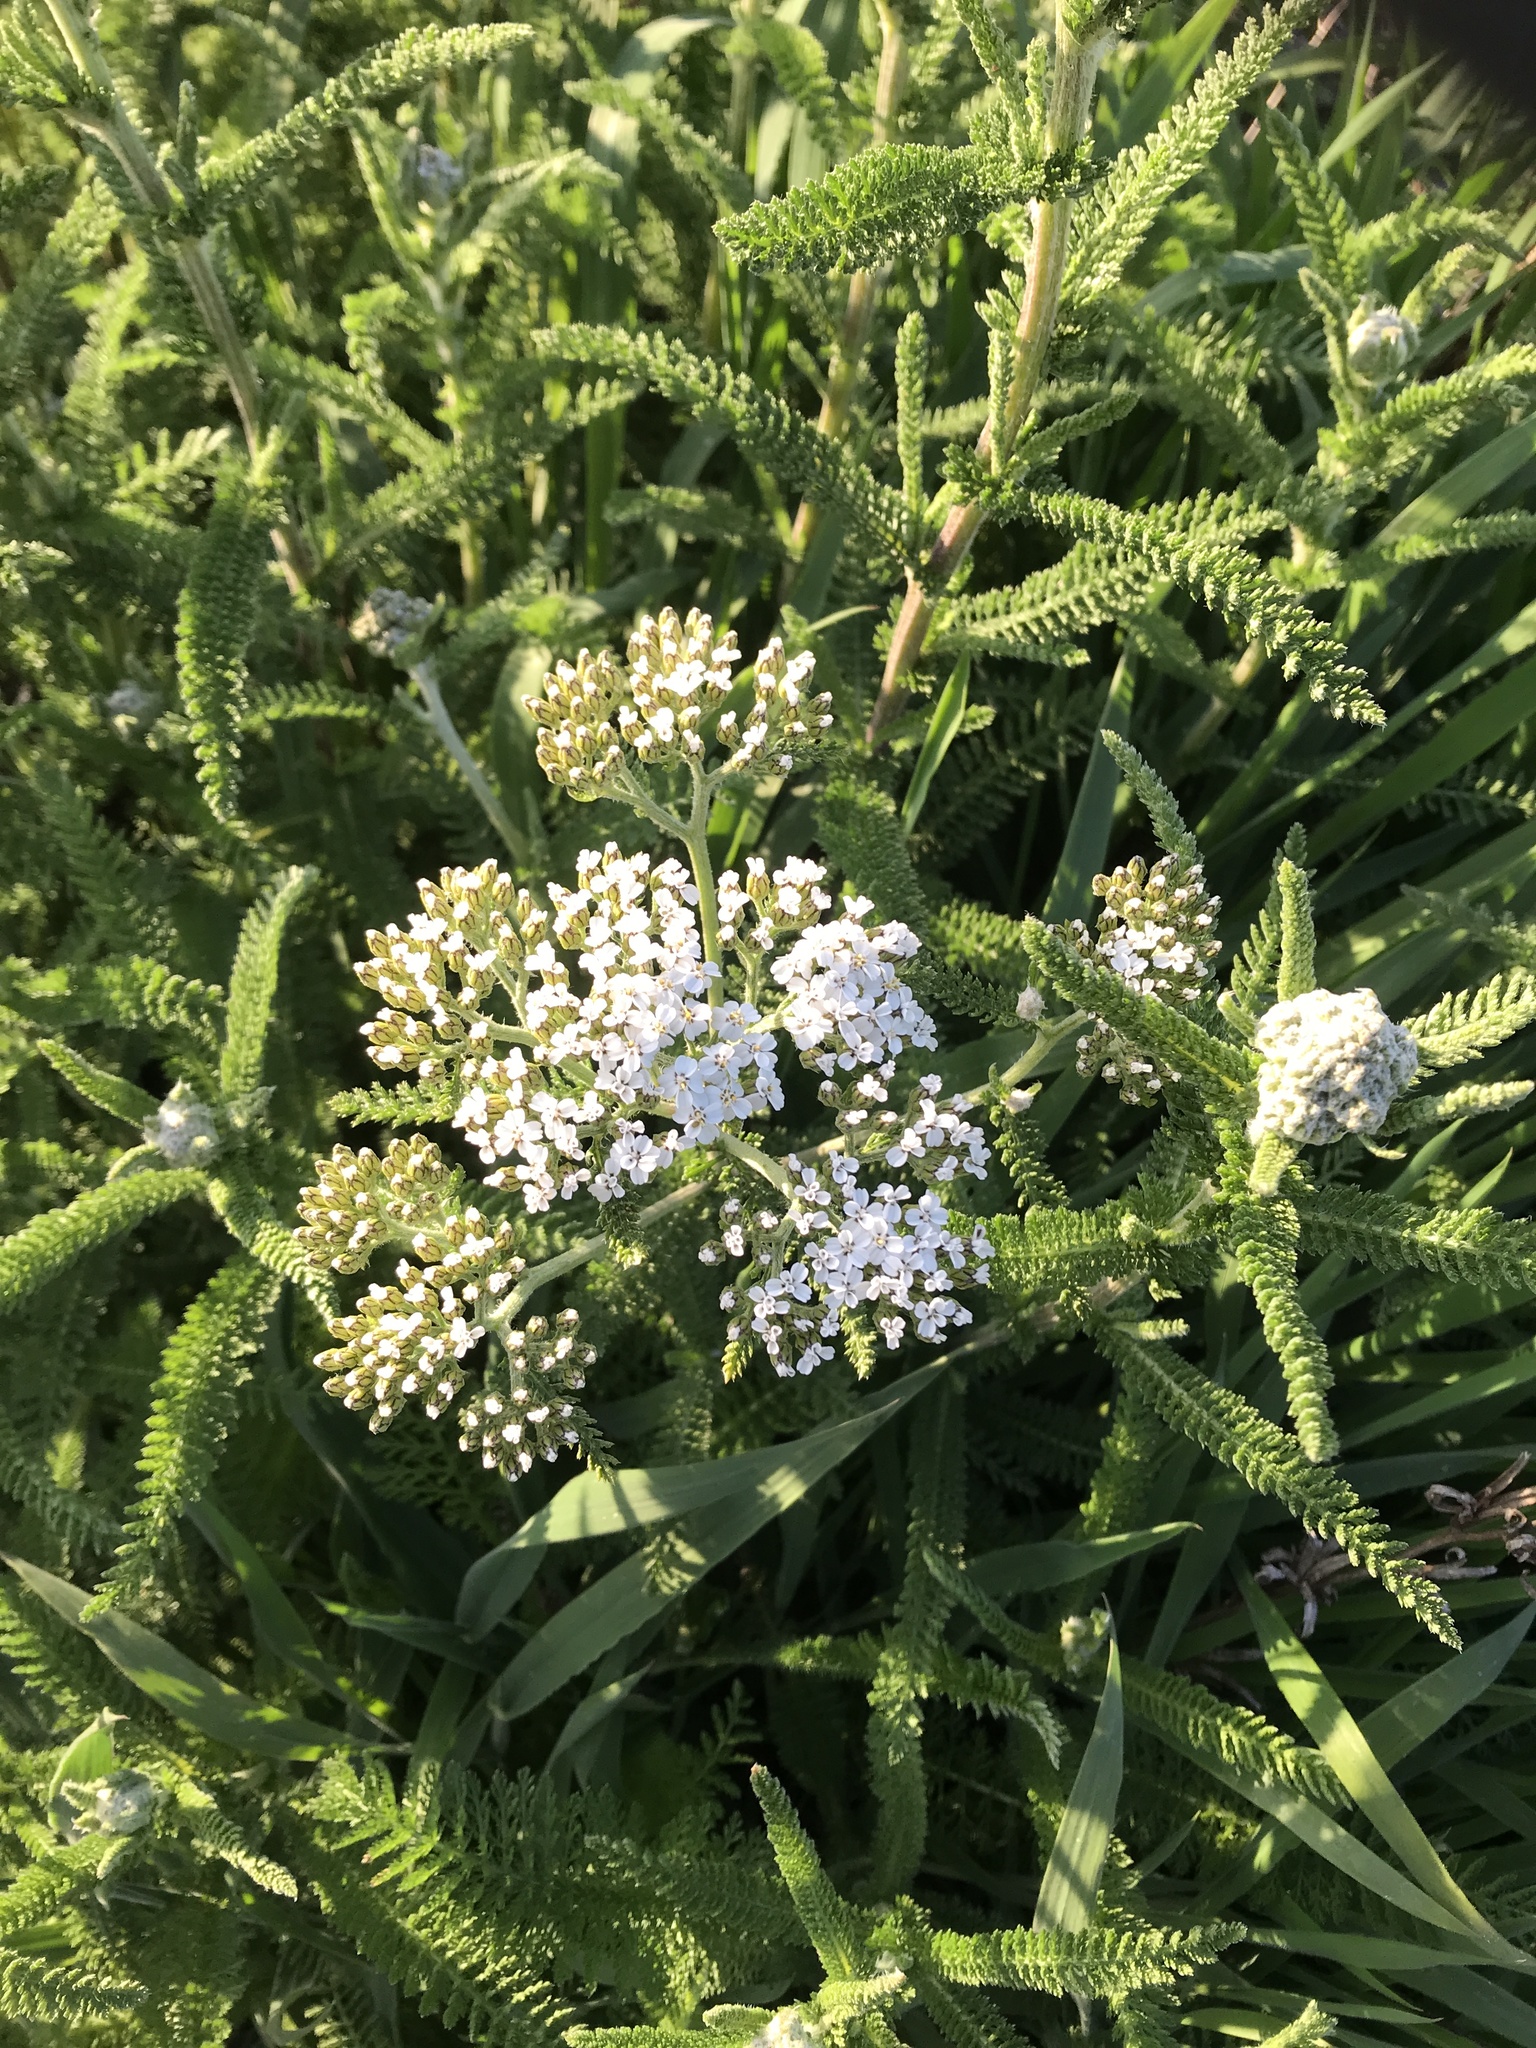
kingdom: Plantae
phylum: Tracheophyta
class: Magnoliopsida
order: Asterales
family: Asteraceae
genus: Achillea
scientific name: Achillea millefolium
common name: Yarrow
